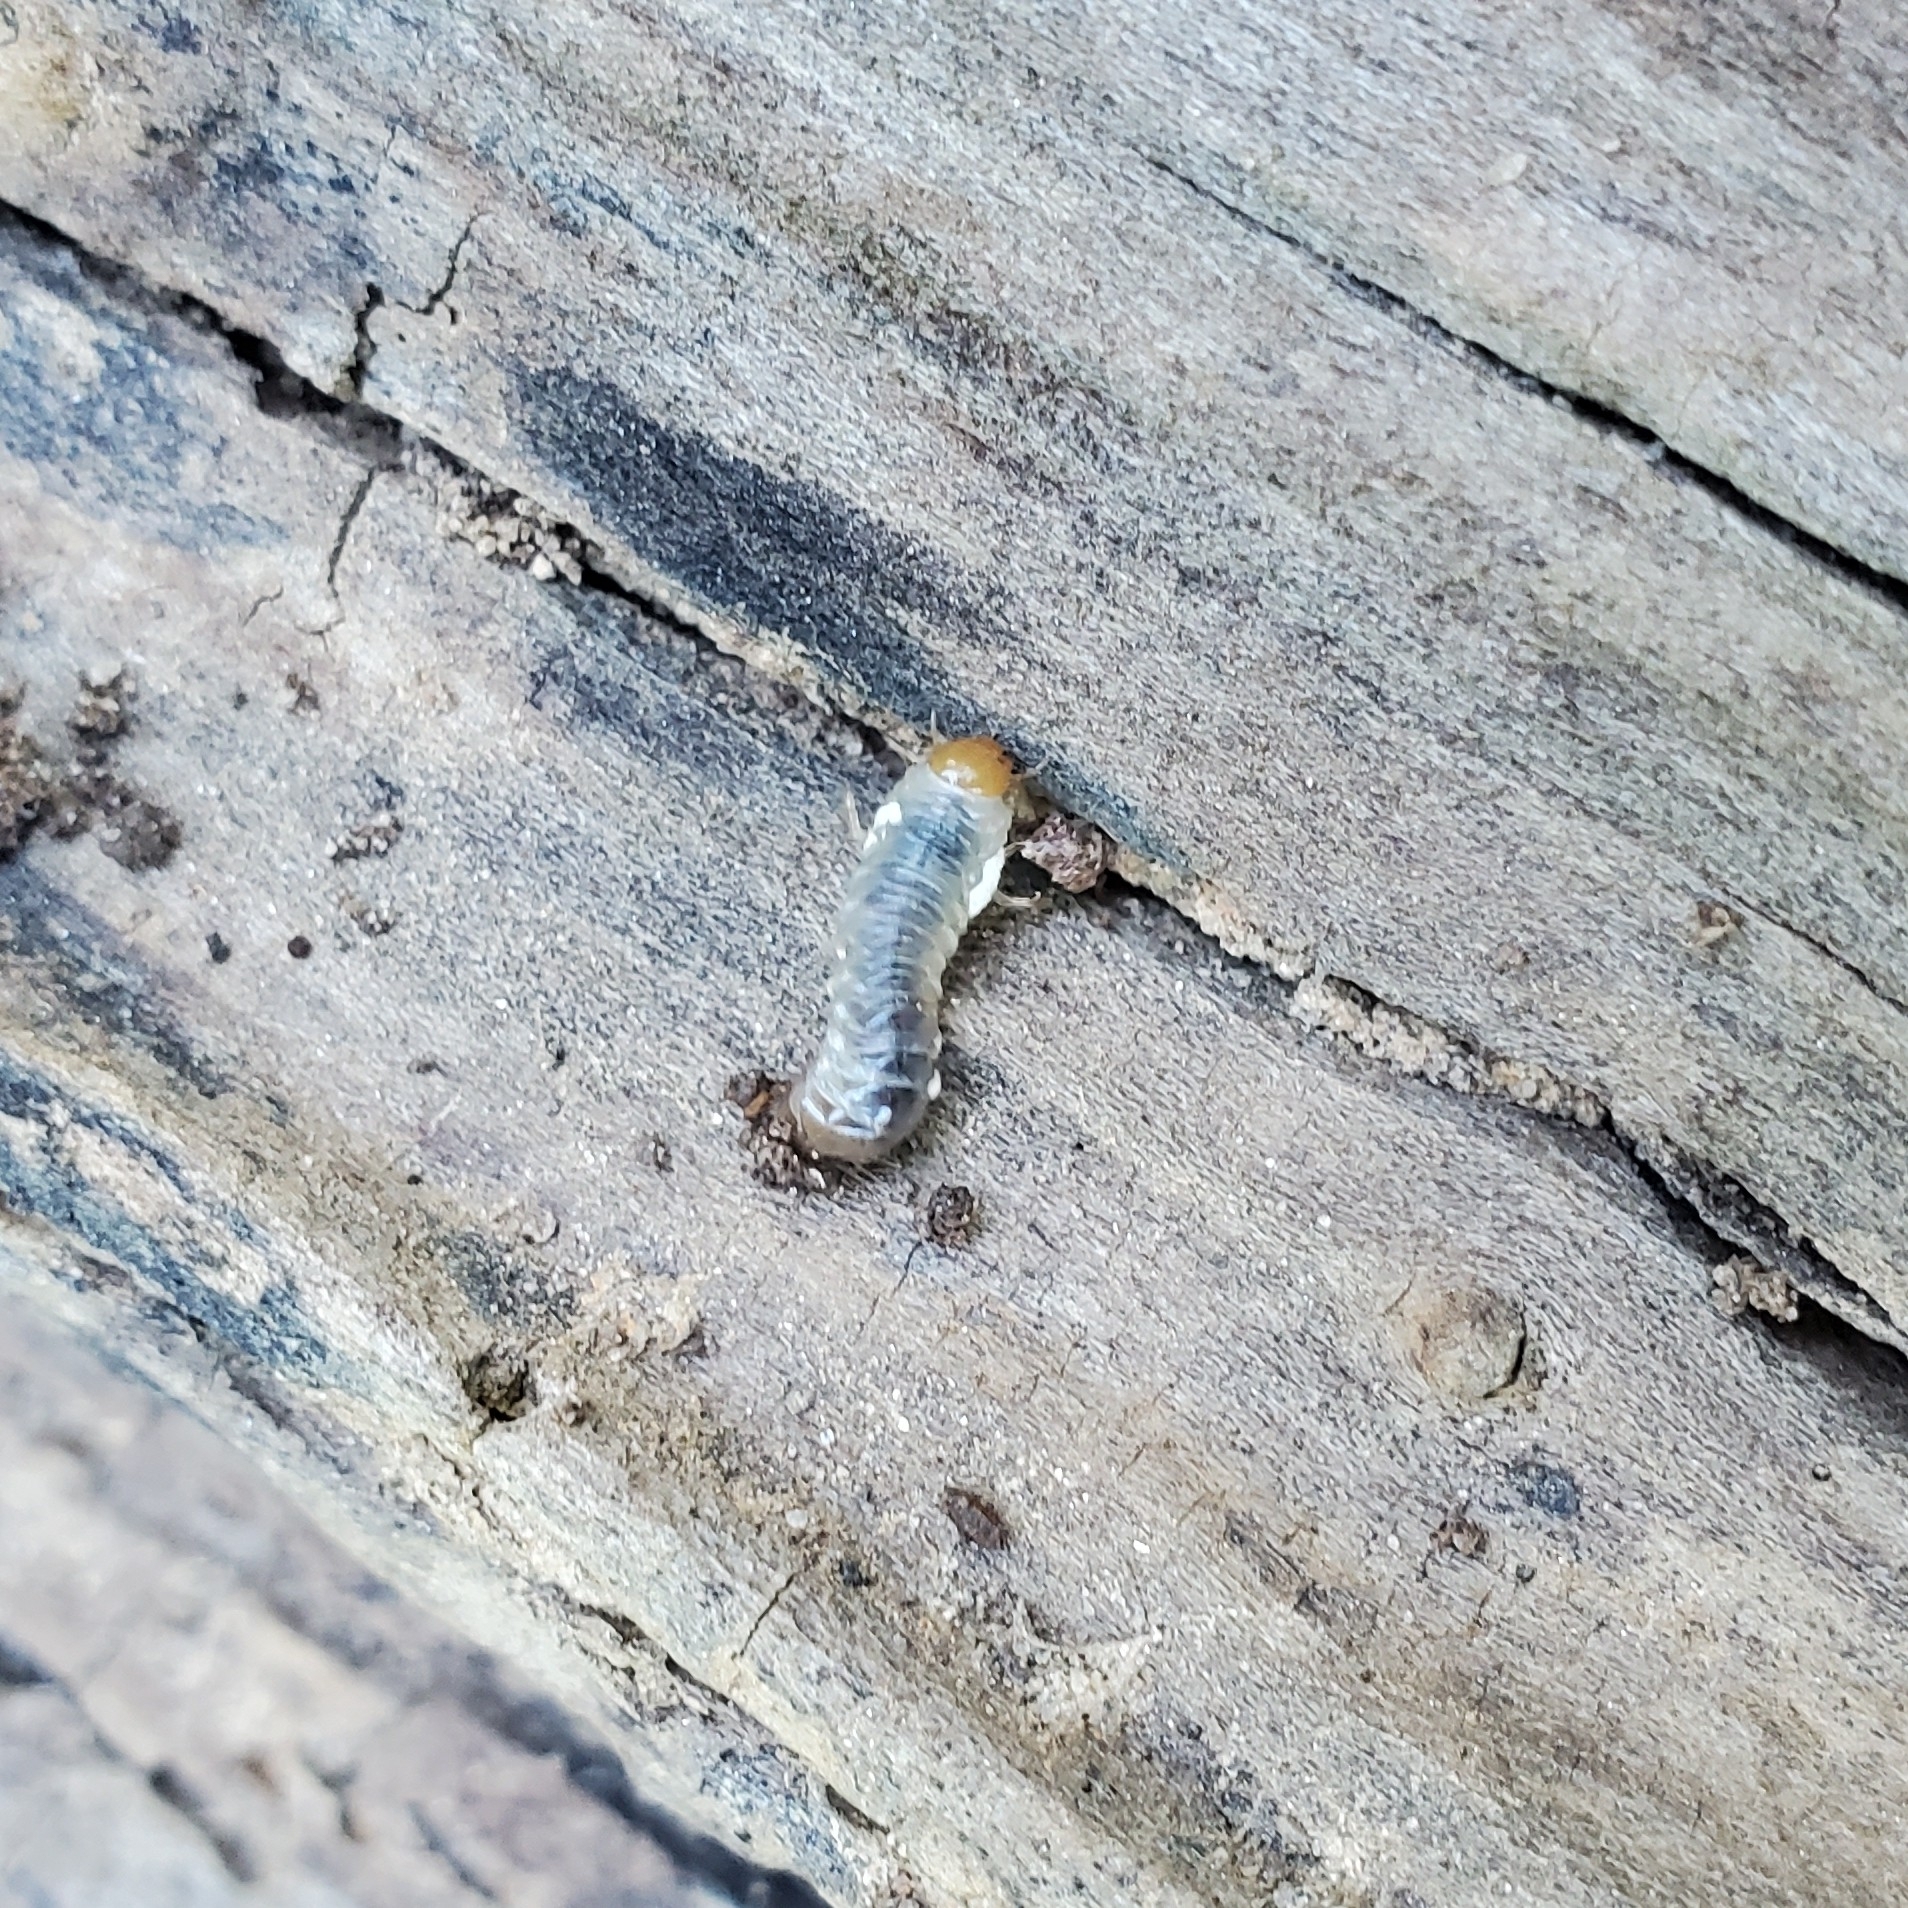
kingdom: Animalia
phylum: Arthropoda
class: Insecta
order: Coleoptera
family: Passalidae
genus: Odontotaenius
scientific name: Odontotaenius disjunctus
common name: Patent leather beetle
